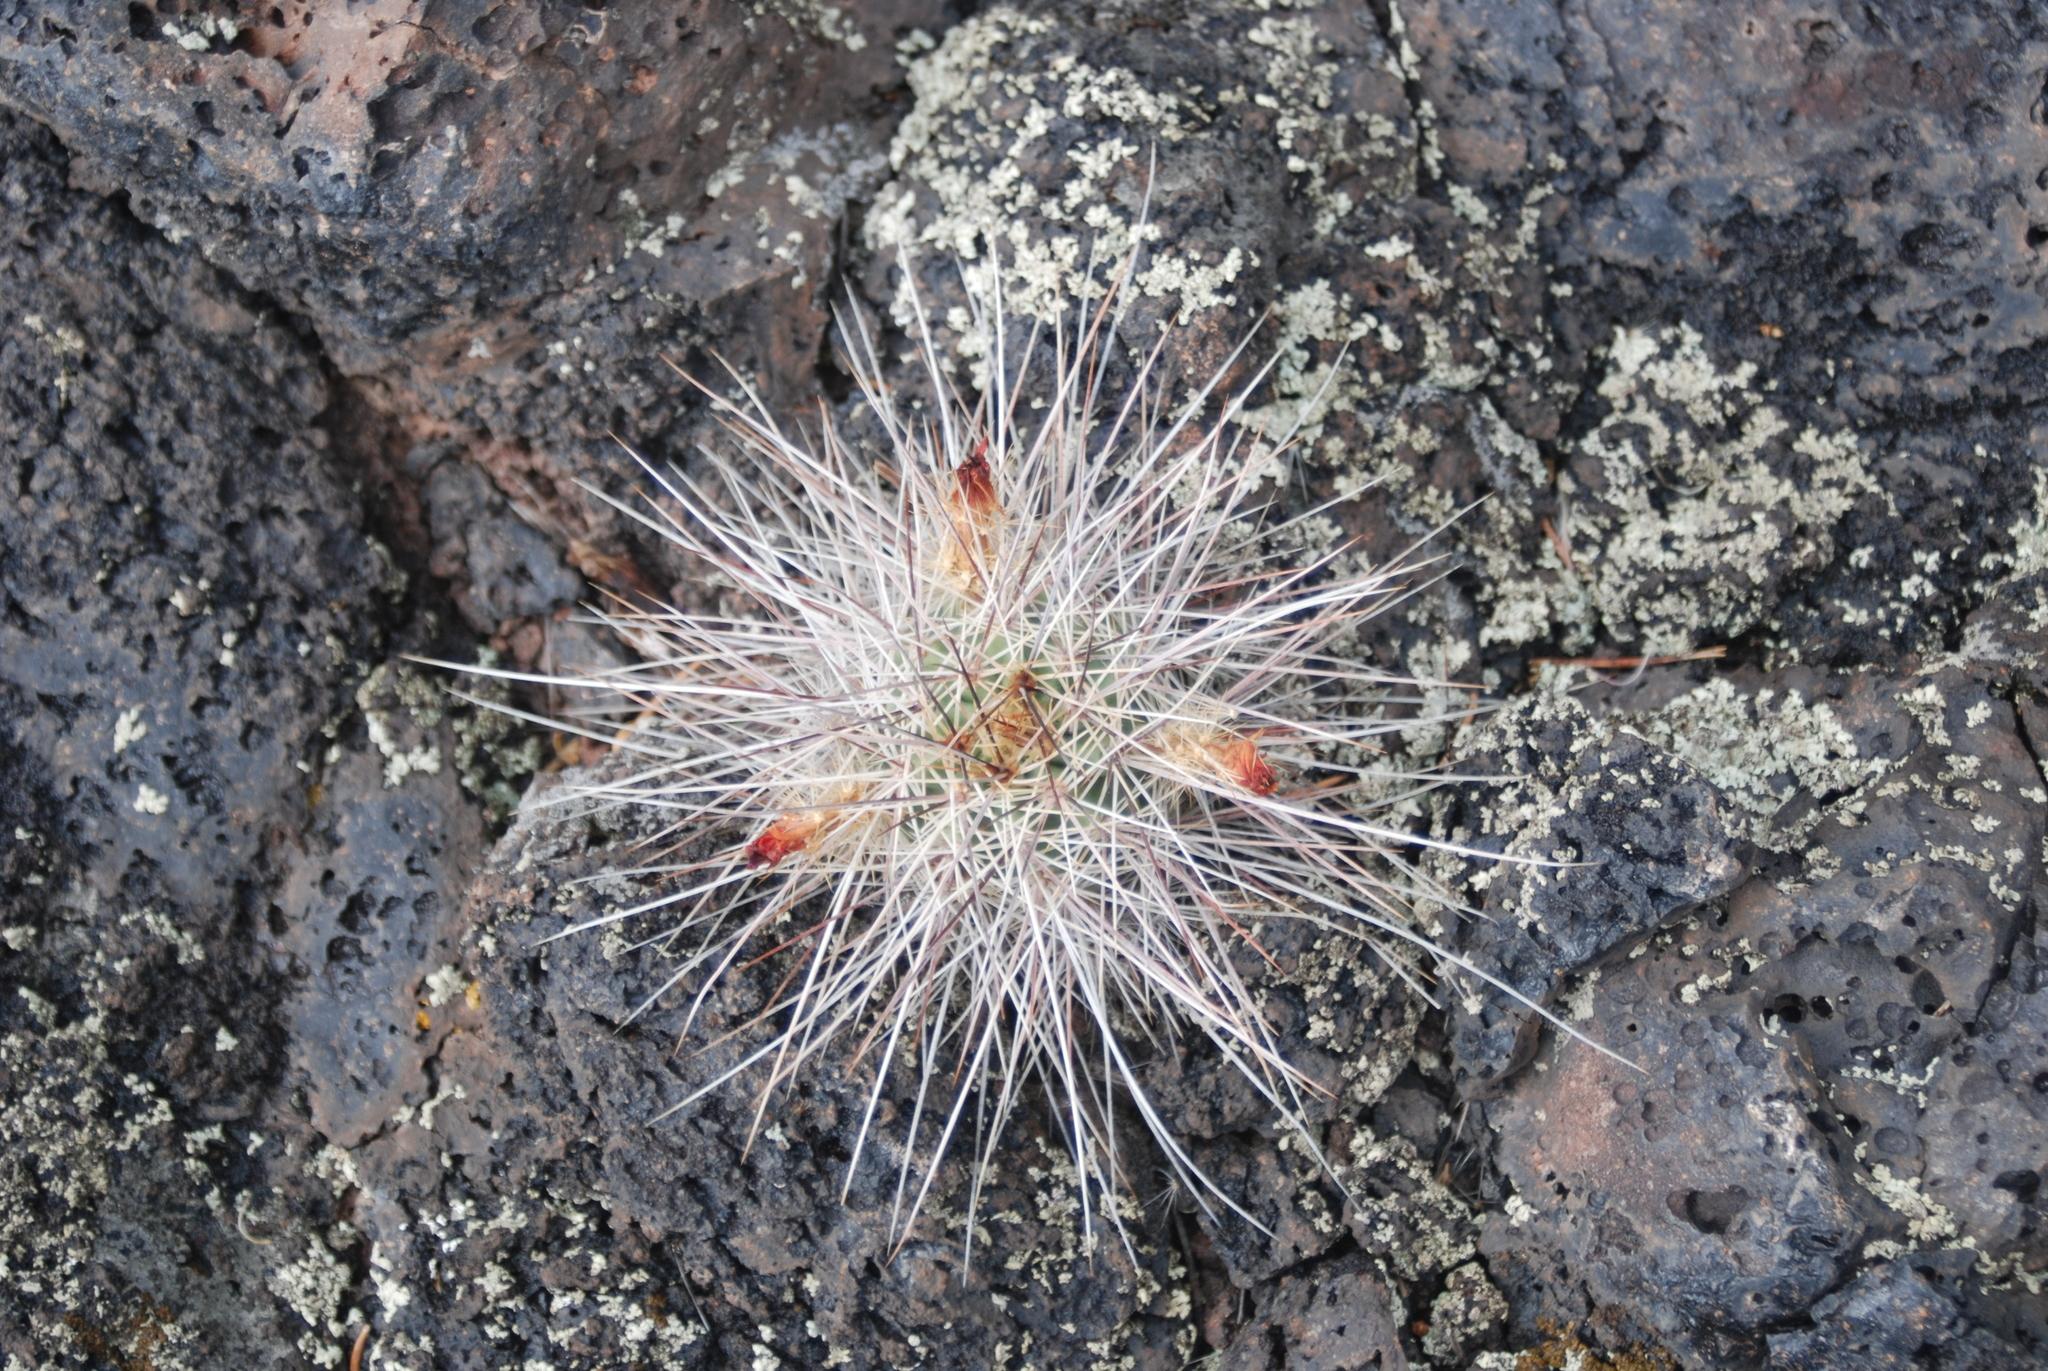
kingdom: Plantae
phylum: Tracheophyta
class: Magnoliopsida
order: Caryophyllales
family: Cactaceae
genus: Echinocereus
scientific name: Echinocereus coccineus
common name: Scarlet hedgehog cactus
